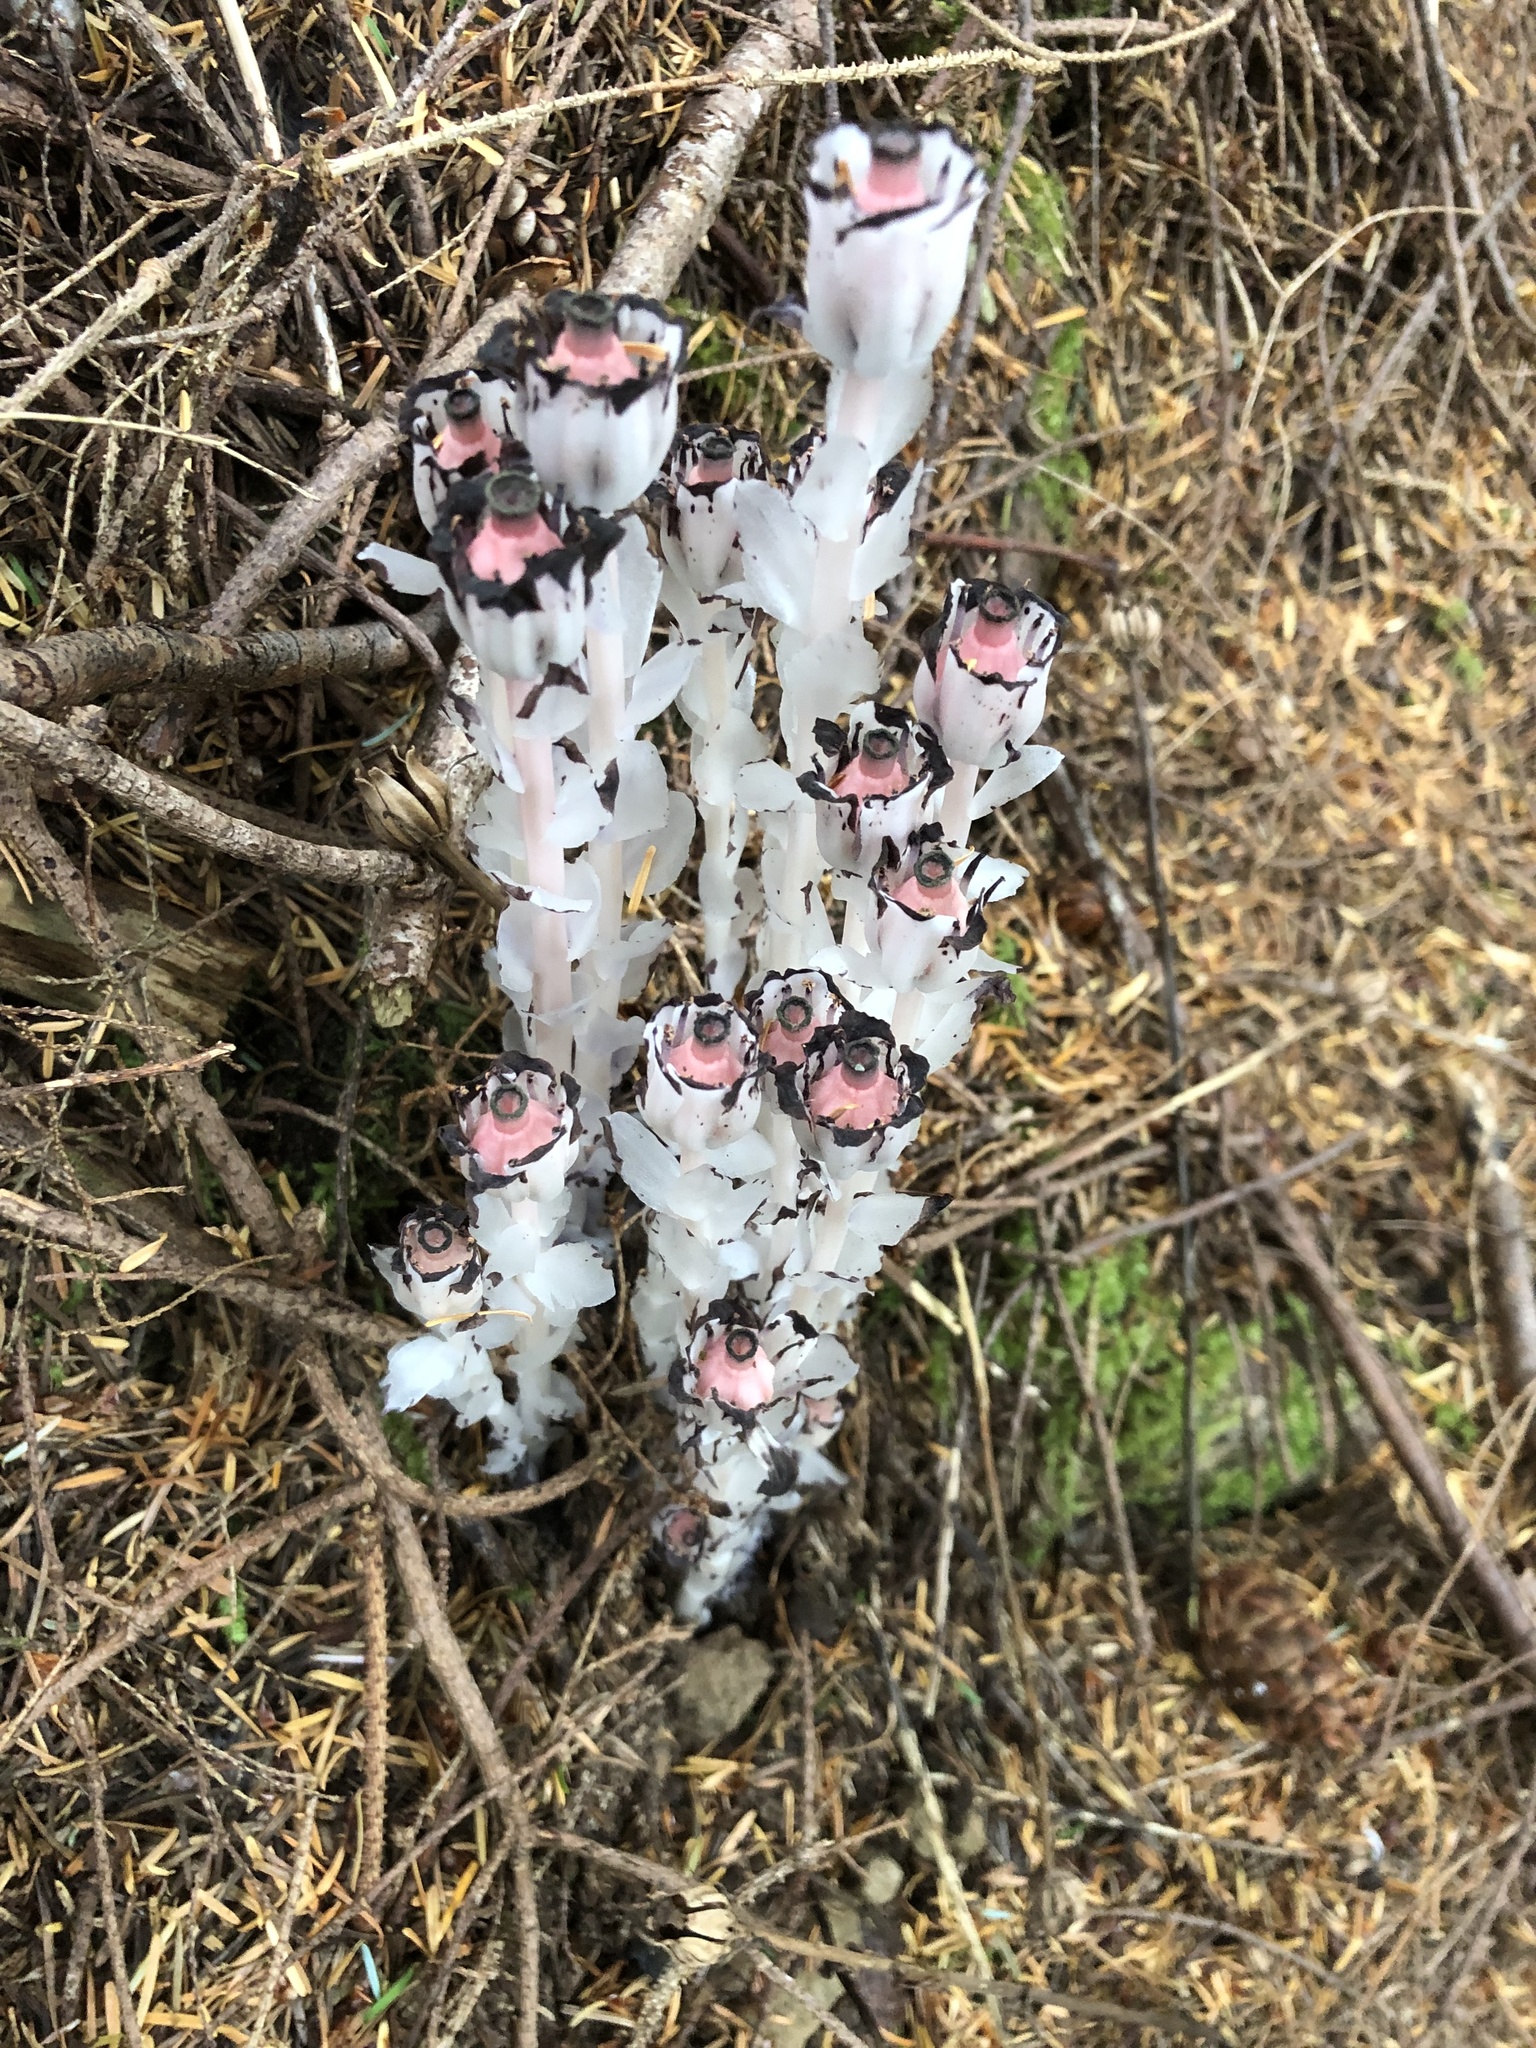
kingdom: Plantae
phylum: Tracheophyta
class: Magnoliopsida
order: Ericales
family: Ericaceae
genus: Monotropa
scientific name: Monotropa uniflora
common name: Convulsion root
